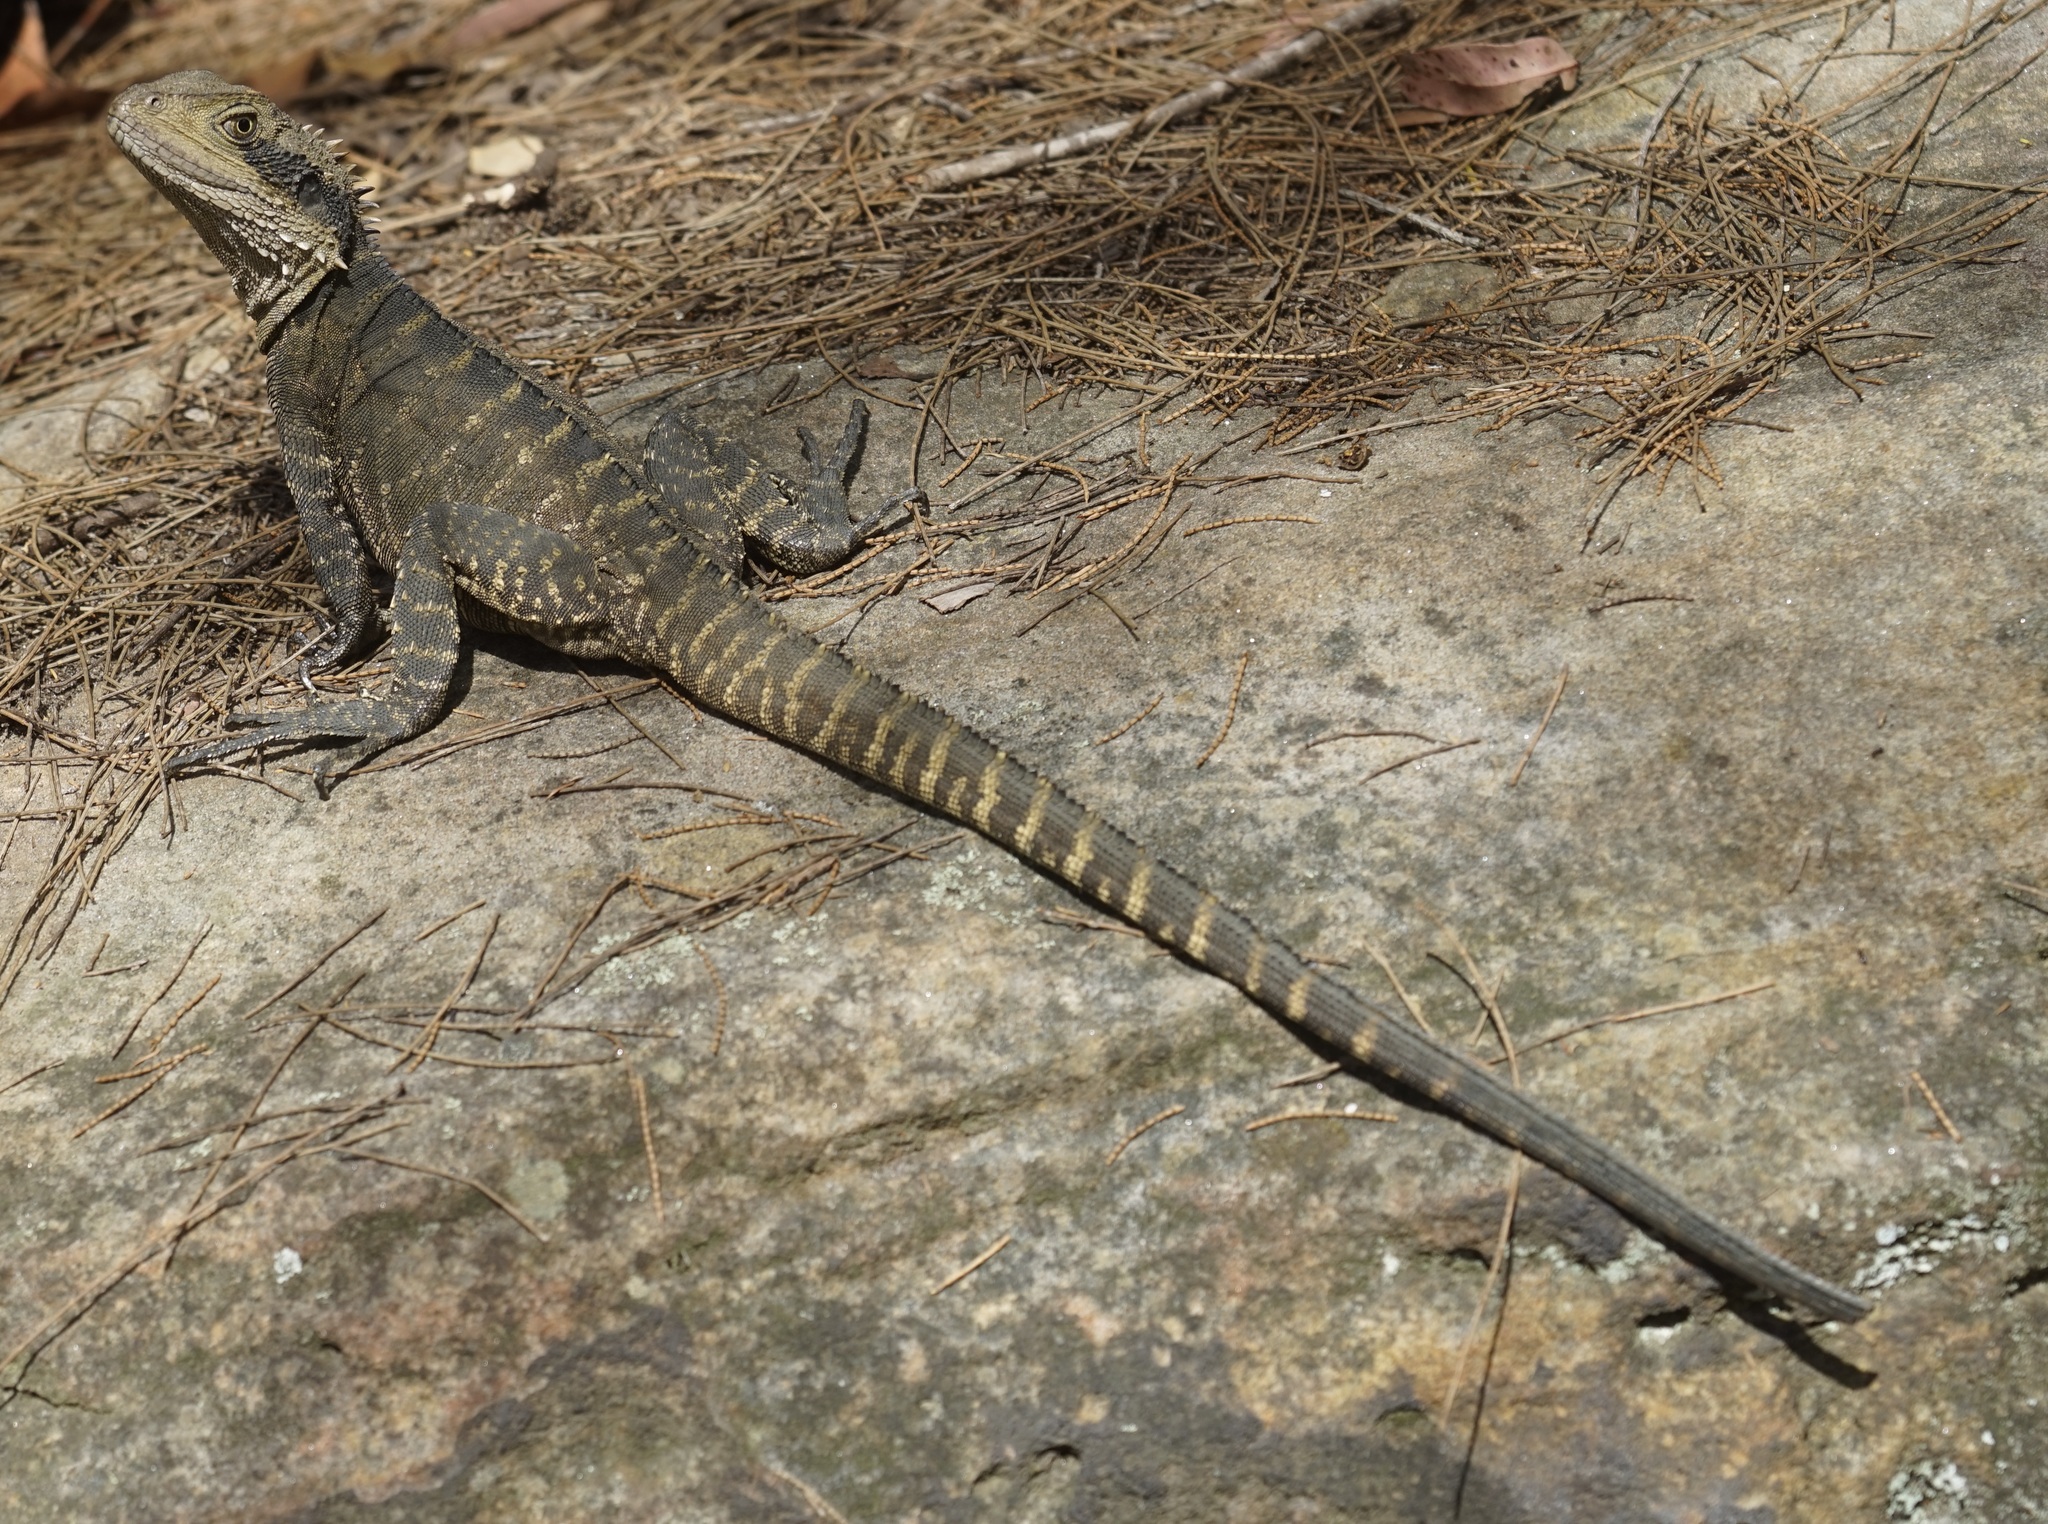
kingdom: Animalia
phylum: Chordata
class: Squamata
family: Agamidae
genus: Intellagama
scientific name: Intellagama lesueurii
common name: Eastern water dragon
